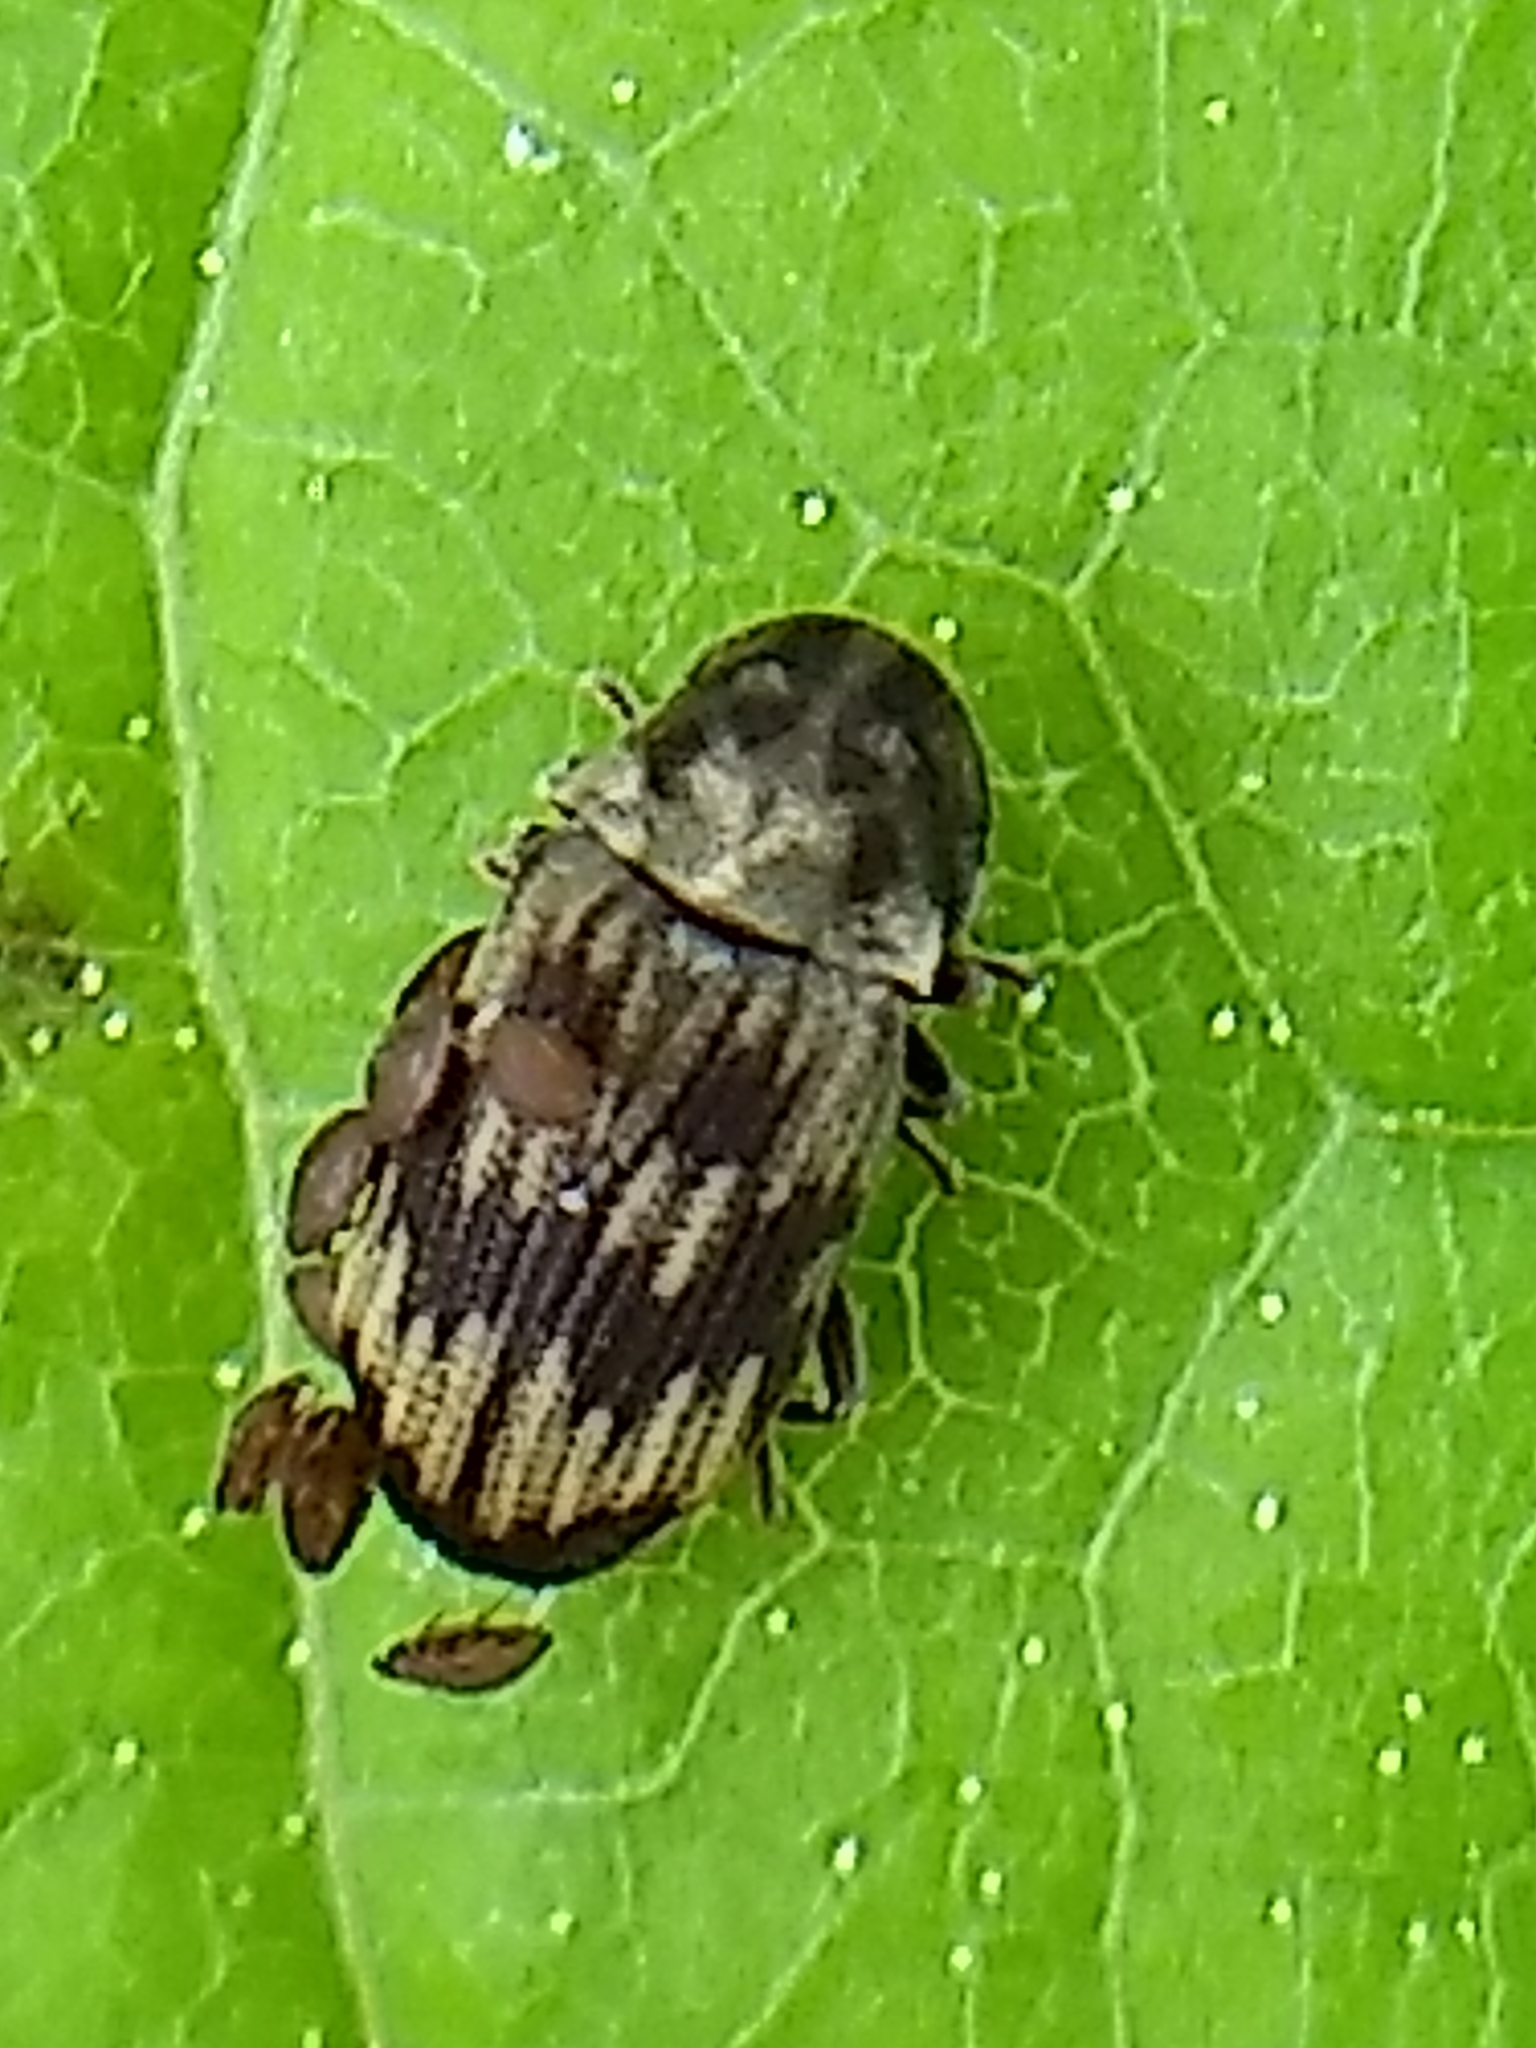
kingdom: Animalia
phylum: Arthropoda
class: Insecta
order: Coleoptera
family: Anobiidae
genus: Hadrobregmus
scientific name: Hadrobregmus notatus
